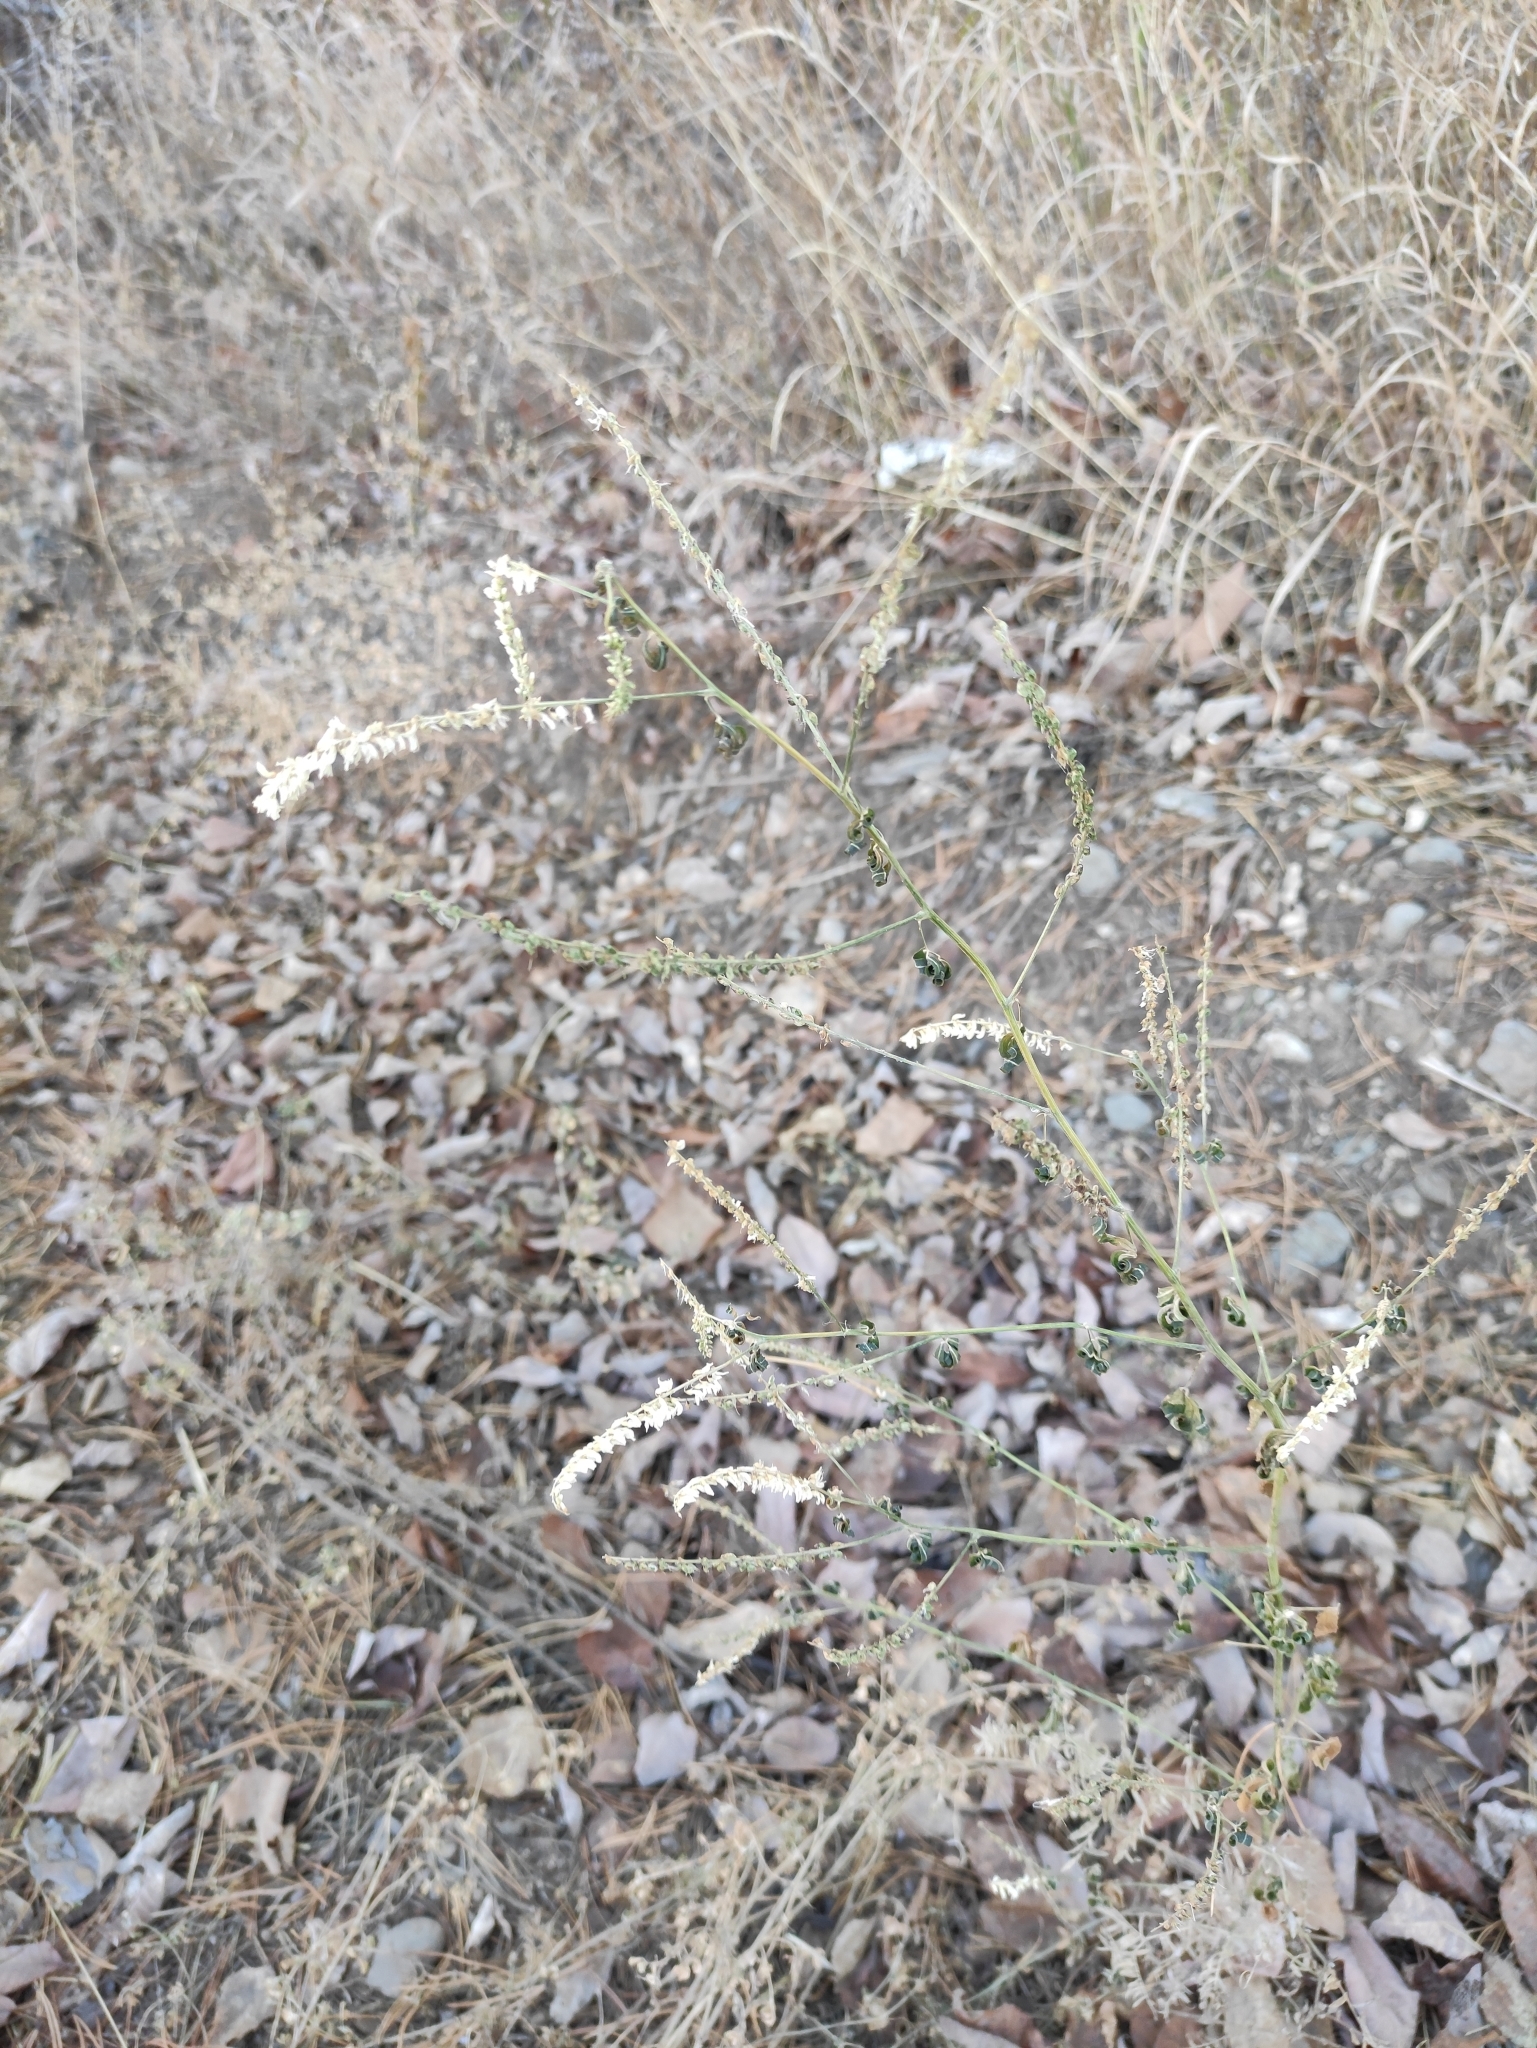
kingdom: Plantae
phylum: Tracheophyta
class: Magnoliopsida
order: Fabales
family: Fabaceae
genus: Melilotus
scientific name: Melilotus albus
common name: White melilot
